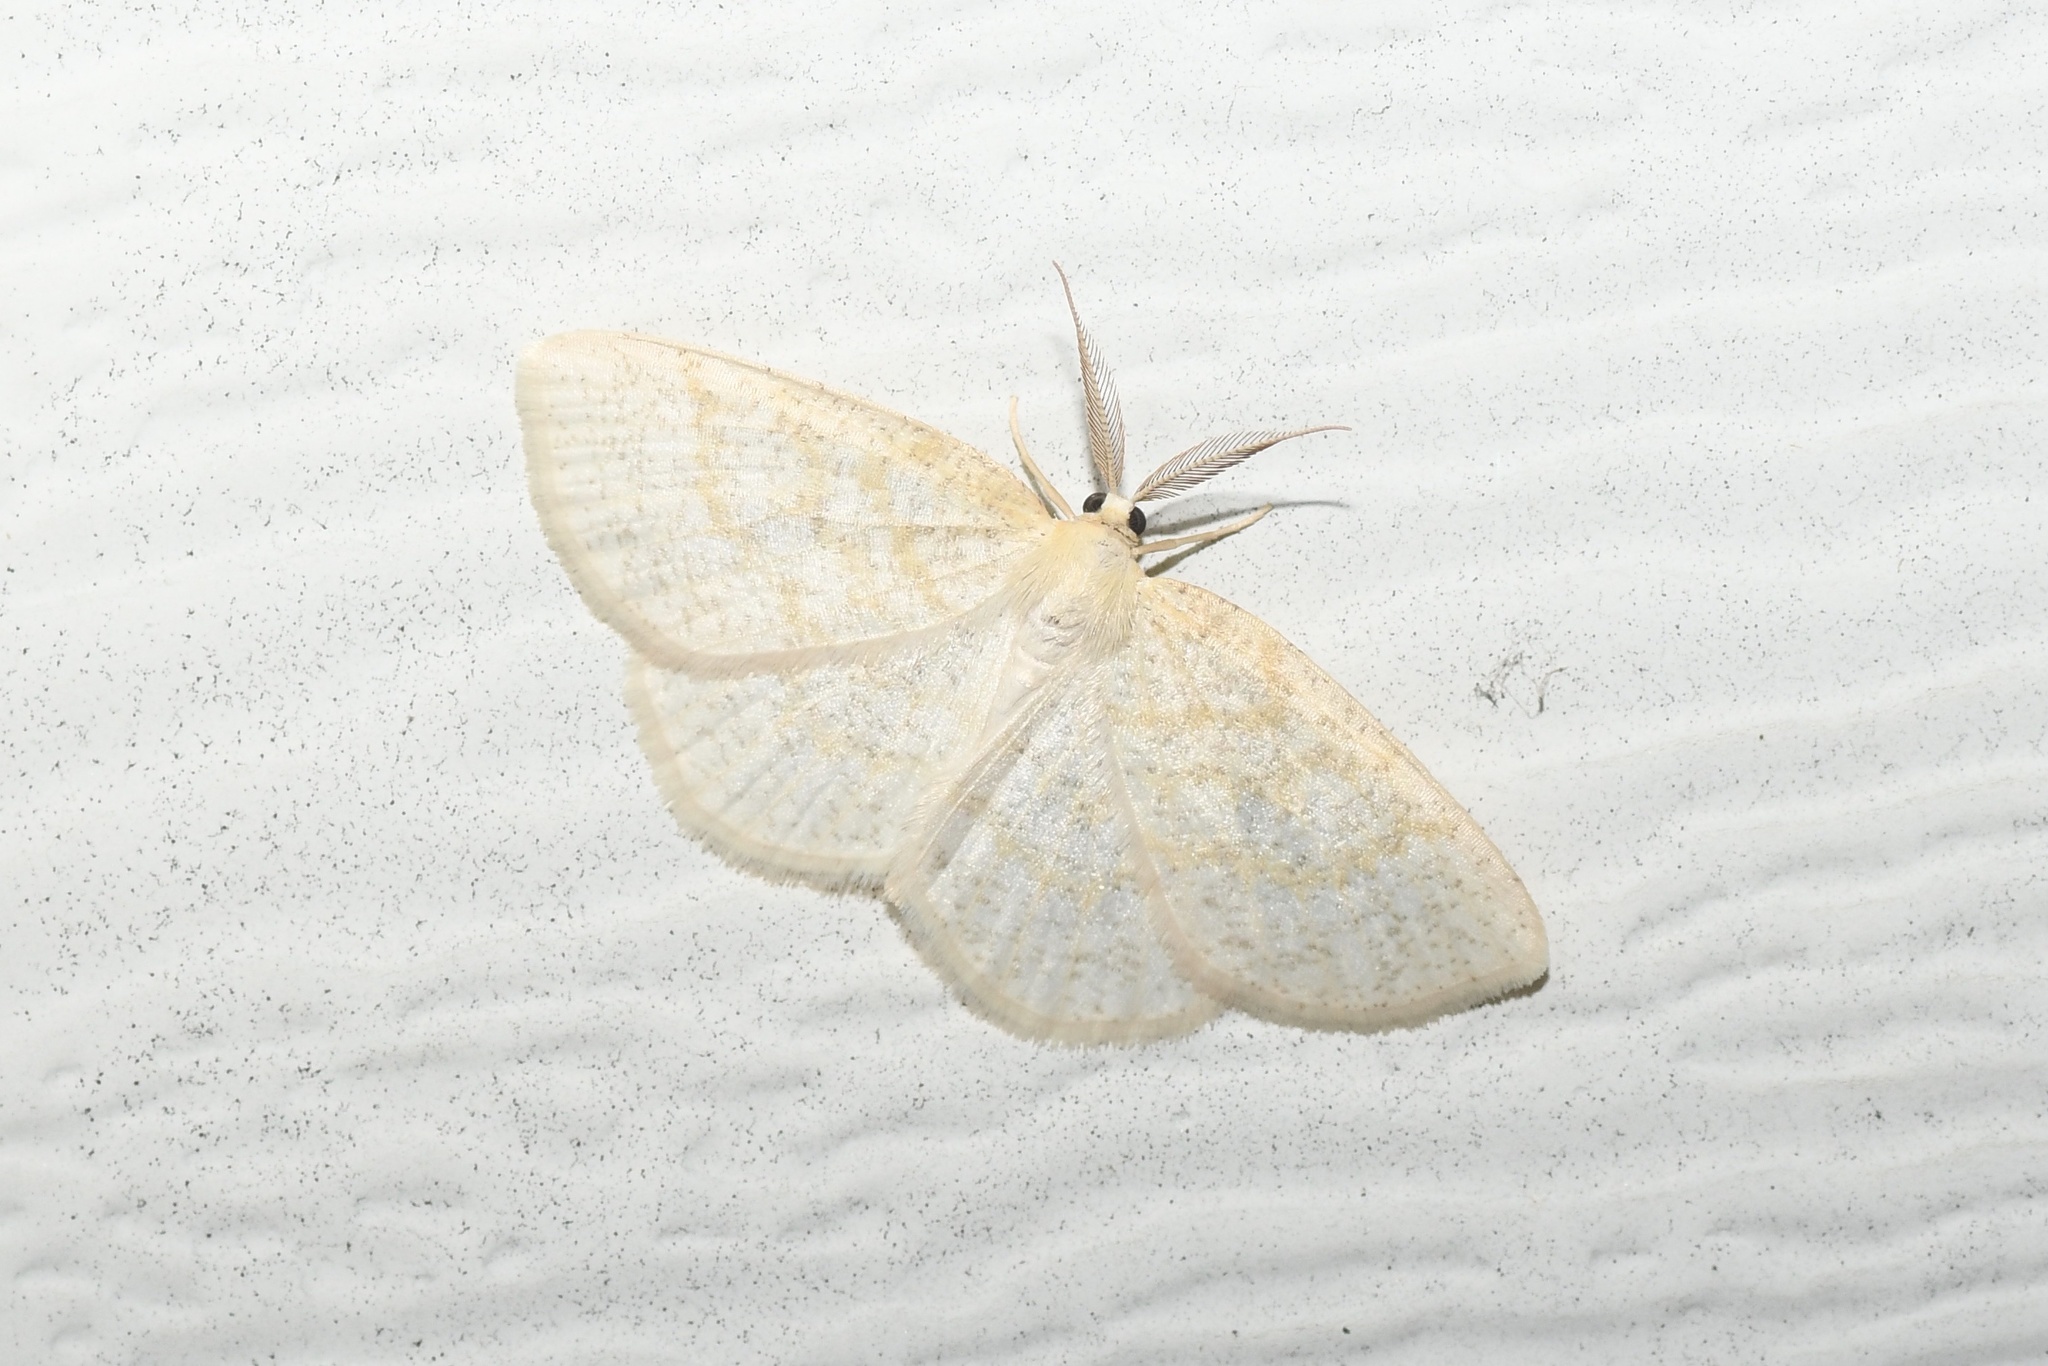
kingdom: Animalia
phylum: Arthropoda
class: Insecta
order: Lepidoptera
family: Geometridae
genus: Cabera
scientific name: Cabera erythemaria
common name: Yellow-dusted cream moth
